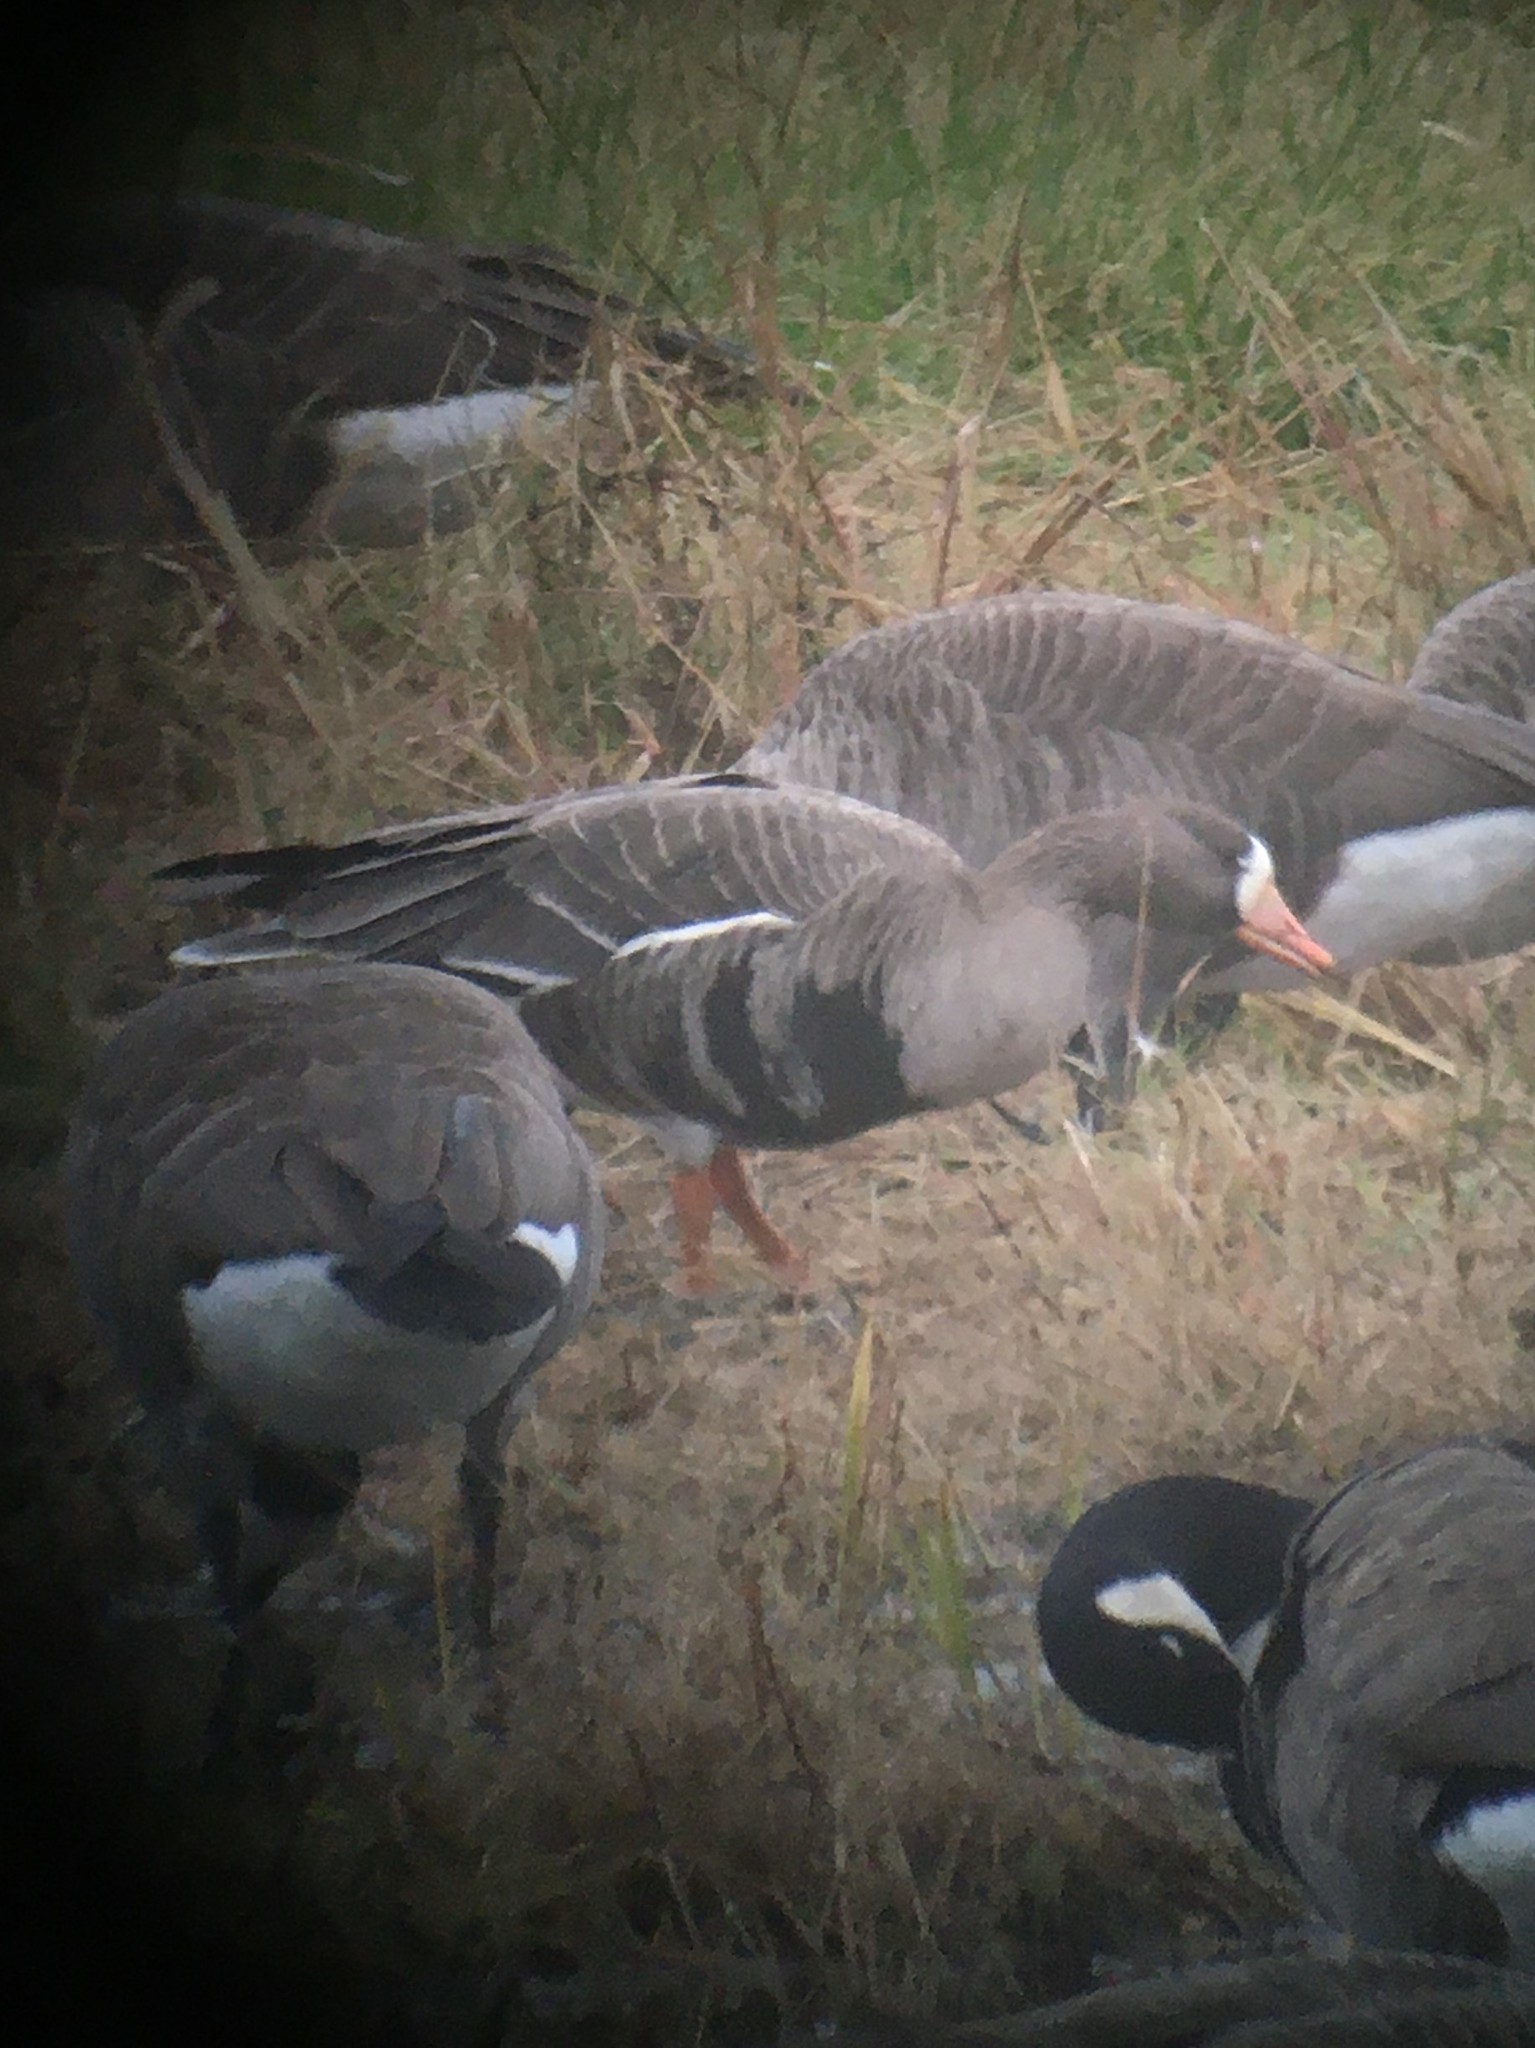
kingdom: Animalia
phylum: Chordata
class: Aves
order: Anseriformes
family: Anatidae
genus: Anser
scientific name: Anser albifrons
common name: Greater white-fronted goose
